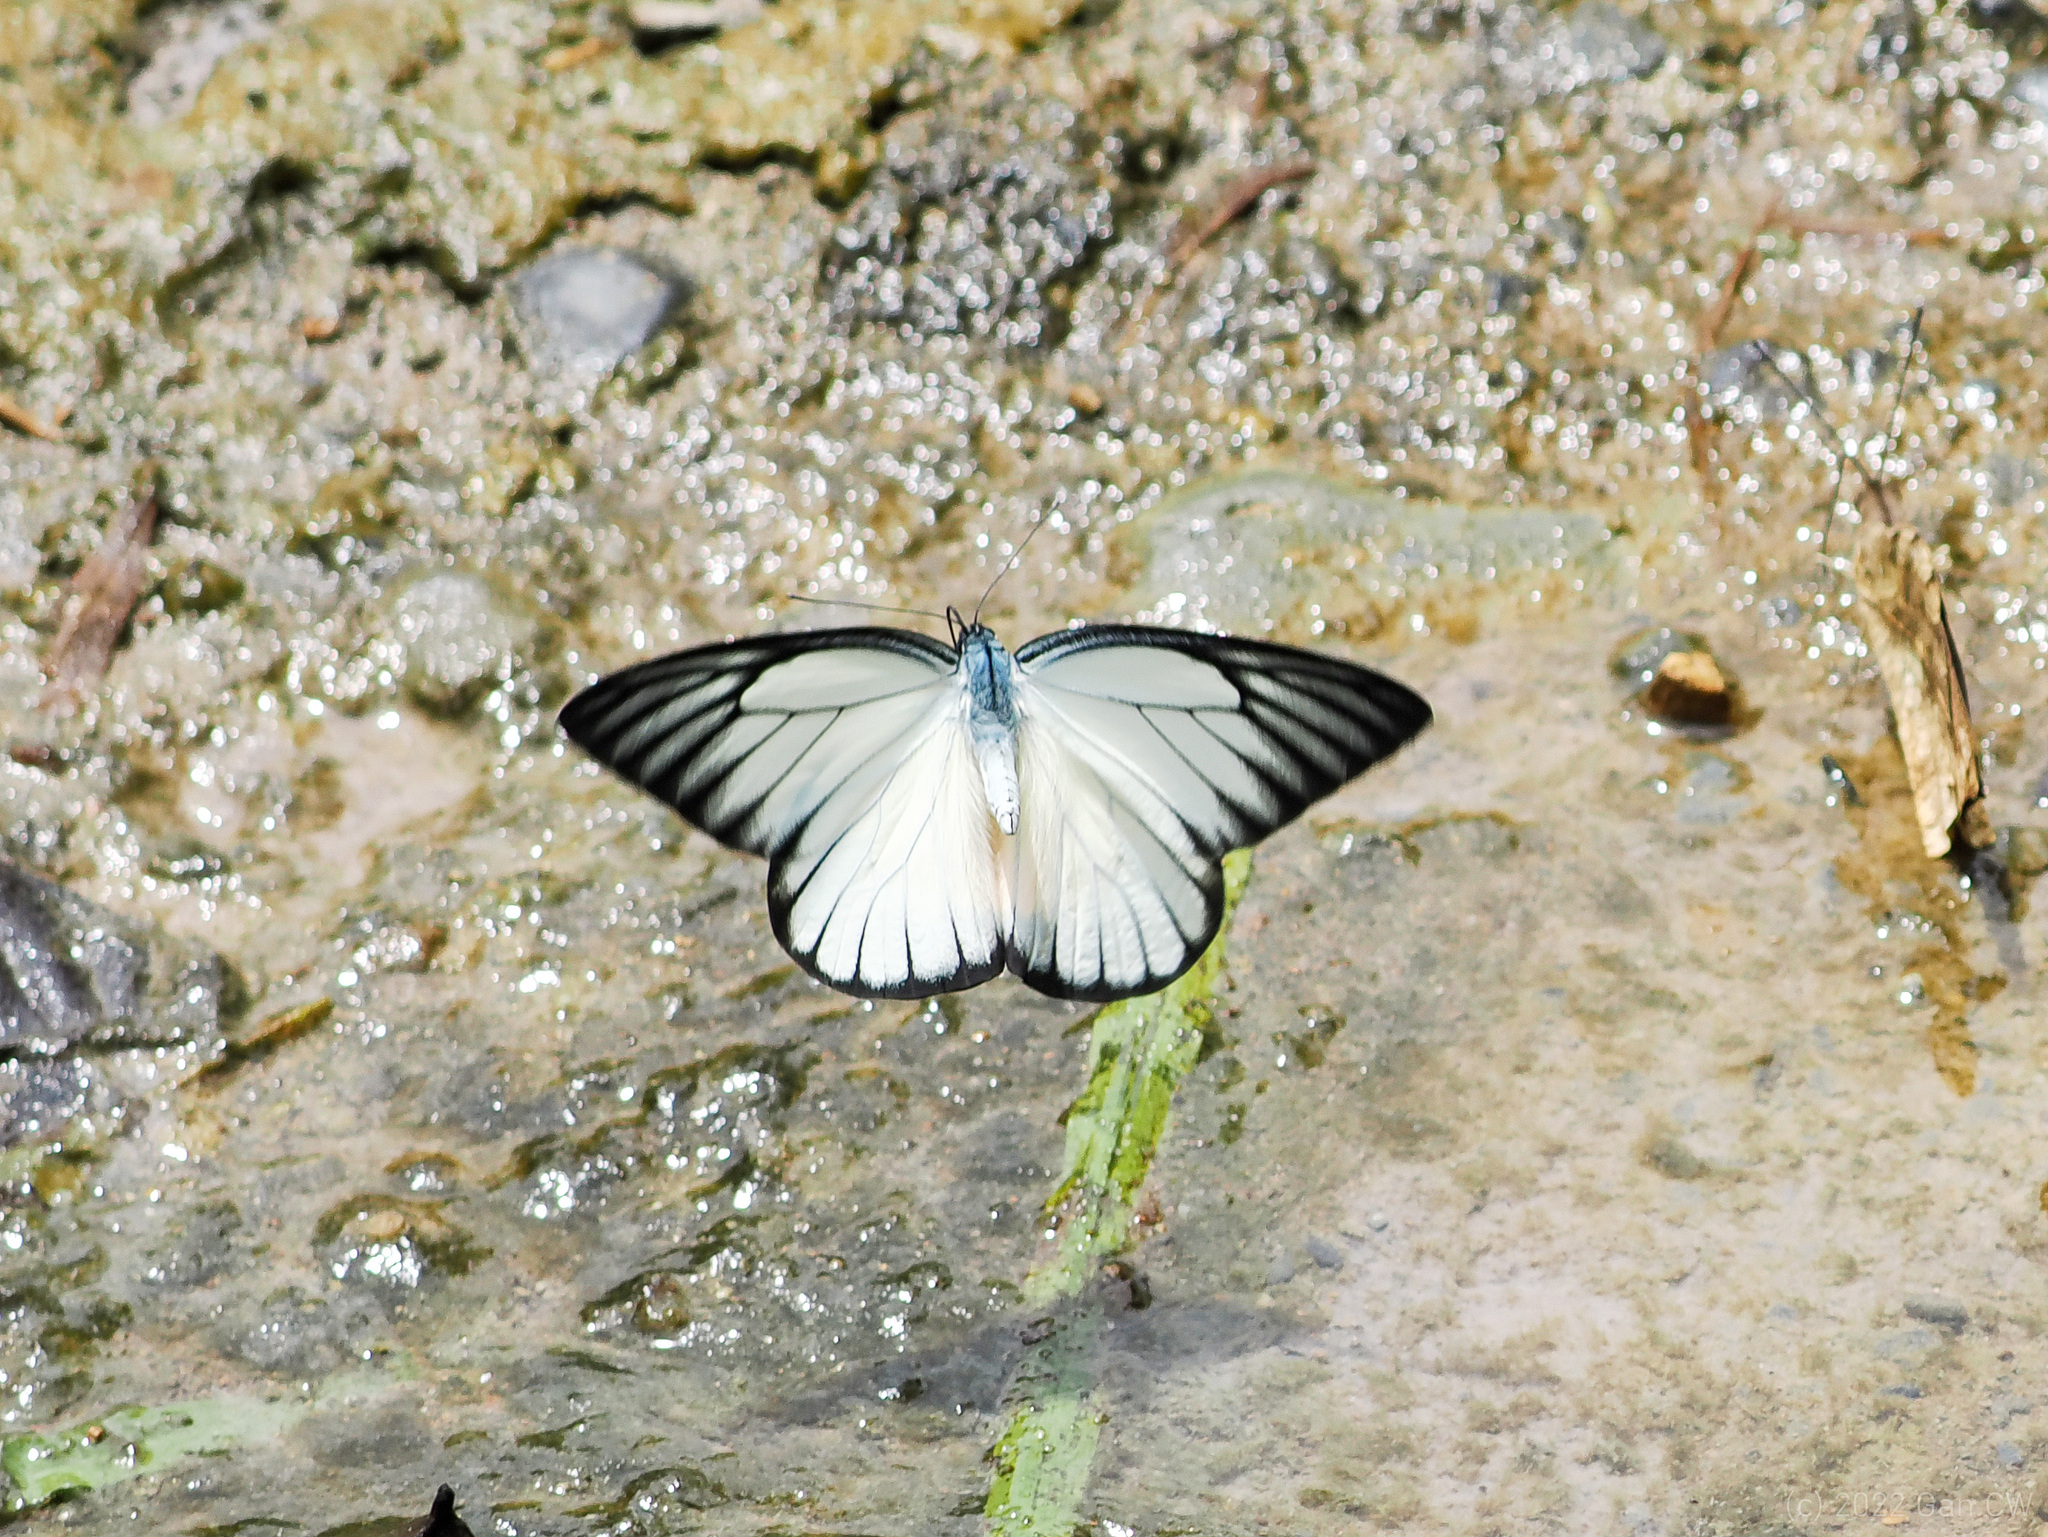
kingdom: Animalia
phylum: Arthropoda
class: Insecta
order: Lepidoptera
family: Pieridae
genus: Prioneris
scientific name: Prioneris philonome
